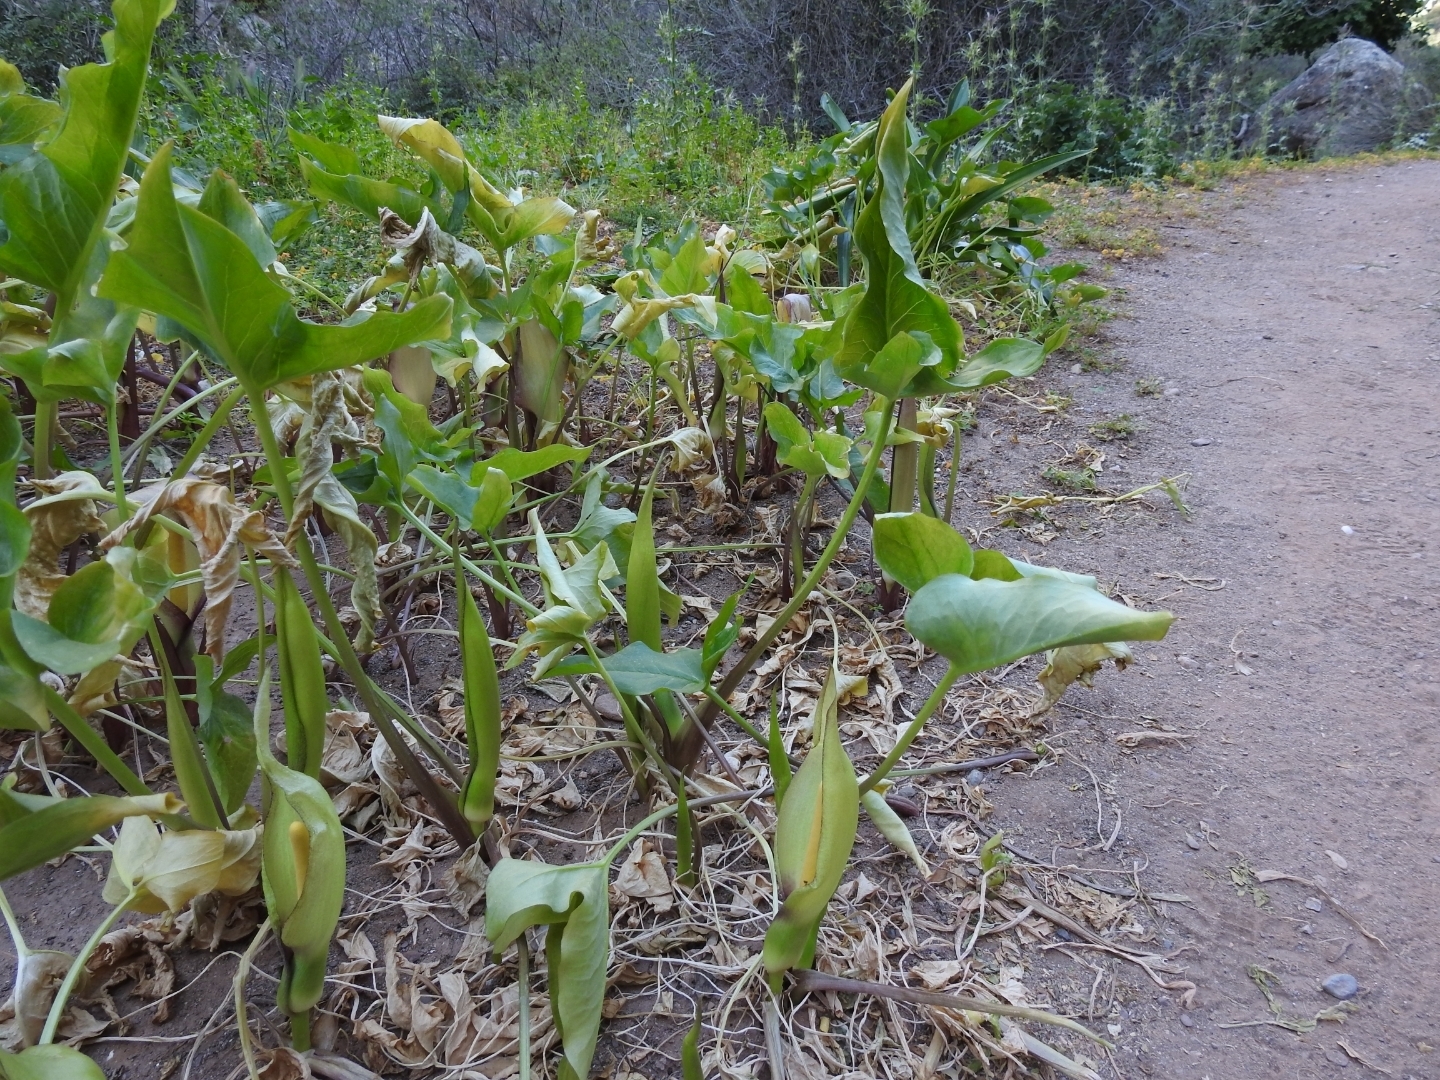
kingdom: Plantae
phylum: Tracheophyta
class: Liliopsida
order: Alismatales
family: Araceae
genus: Arum
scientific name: Arum concinnatum
